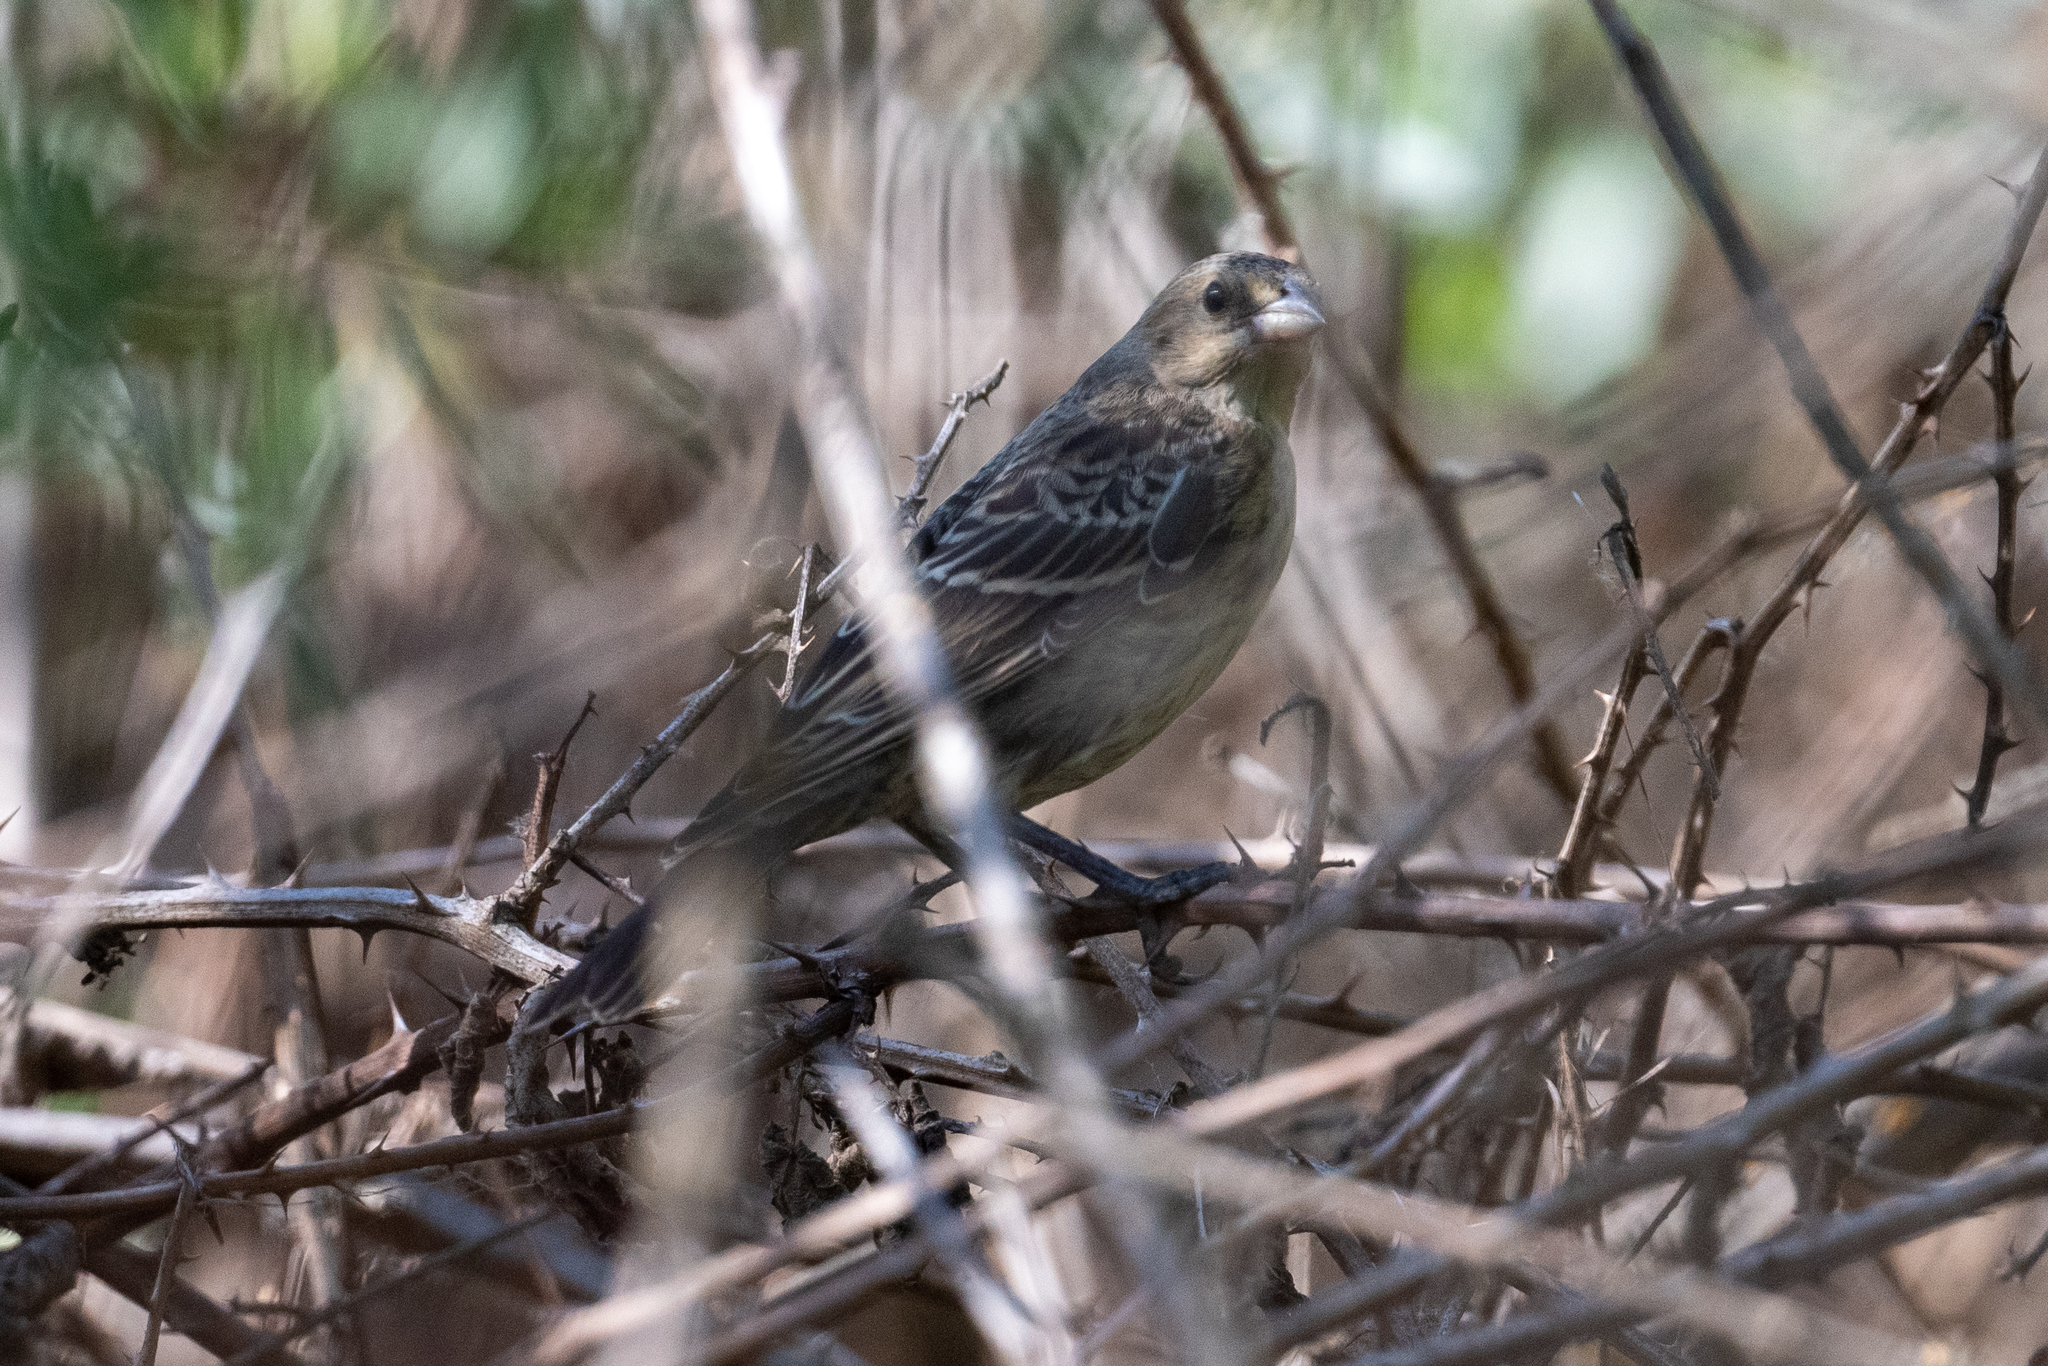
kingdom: Animalia
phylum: Chordata
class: Aves
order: Passeriformes
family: Icteridae
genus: Molothrus
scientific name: Molothrus ater
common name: Brown-headed cowbird
